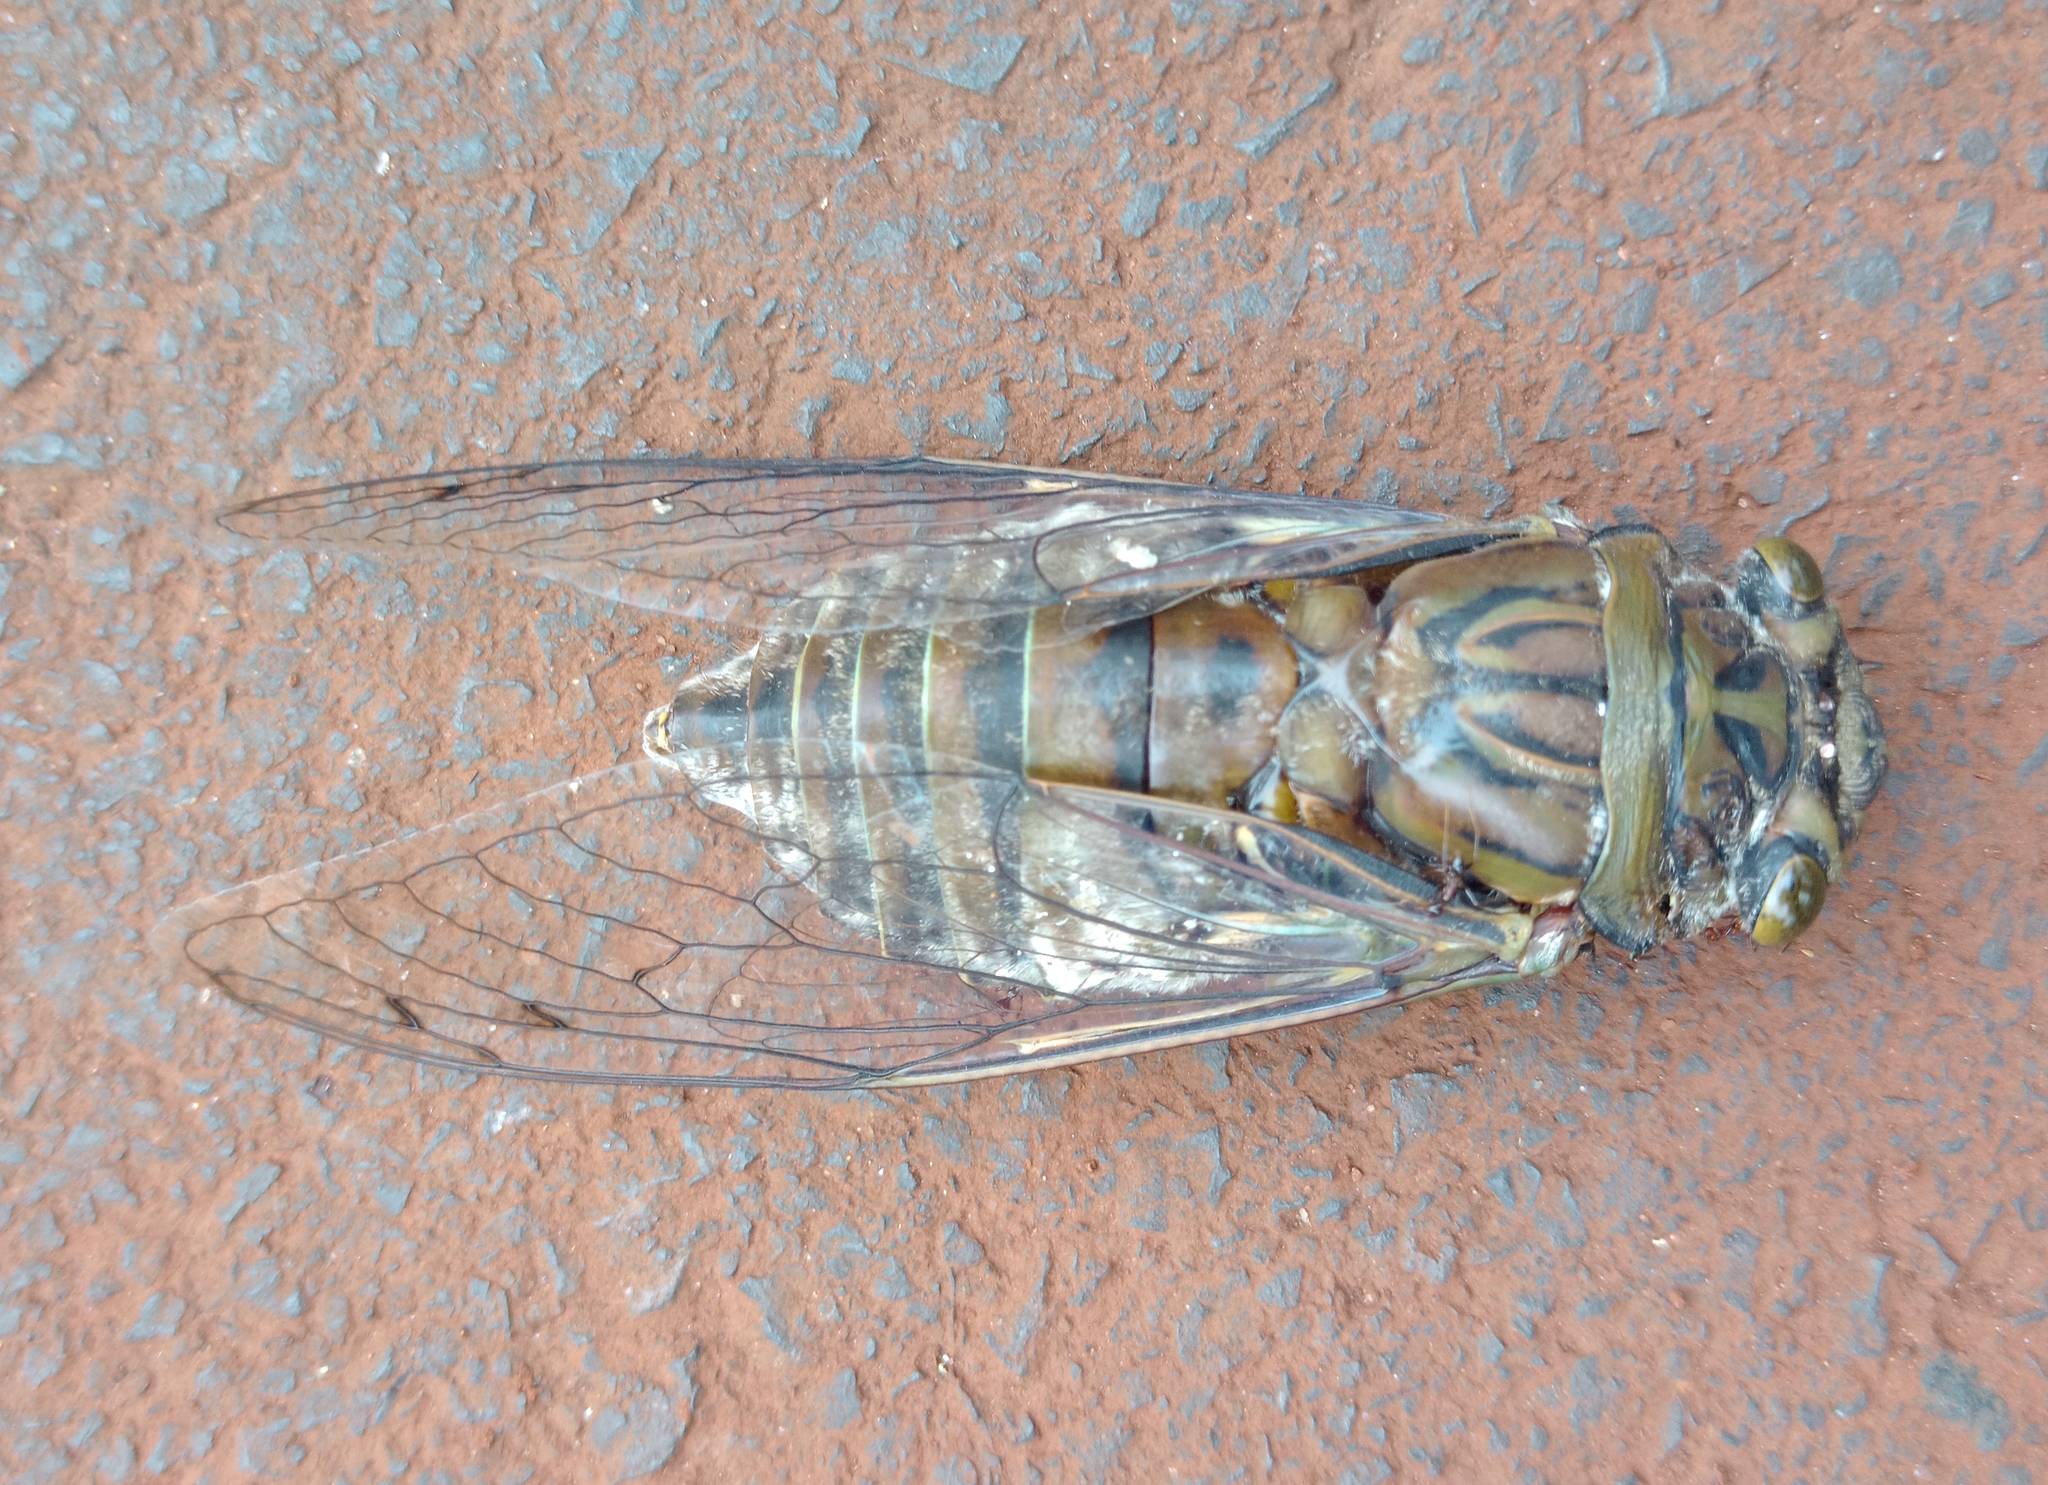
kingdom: Animalia
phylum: Arthropoda
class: Insecta
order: Hemiptera
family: Cicadidae
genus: Quesada
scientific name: Quesada gigas
